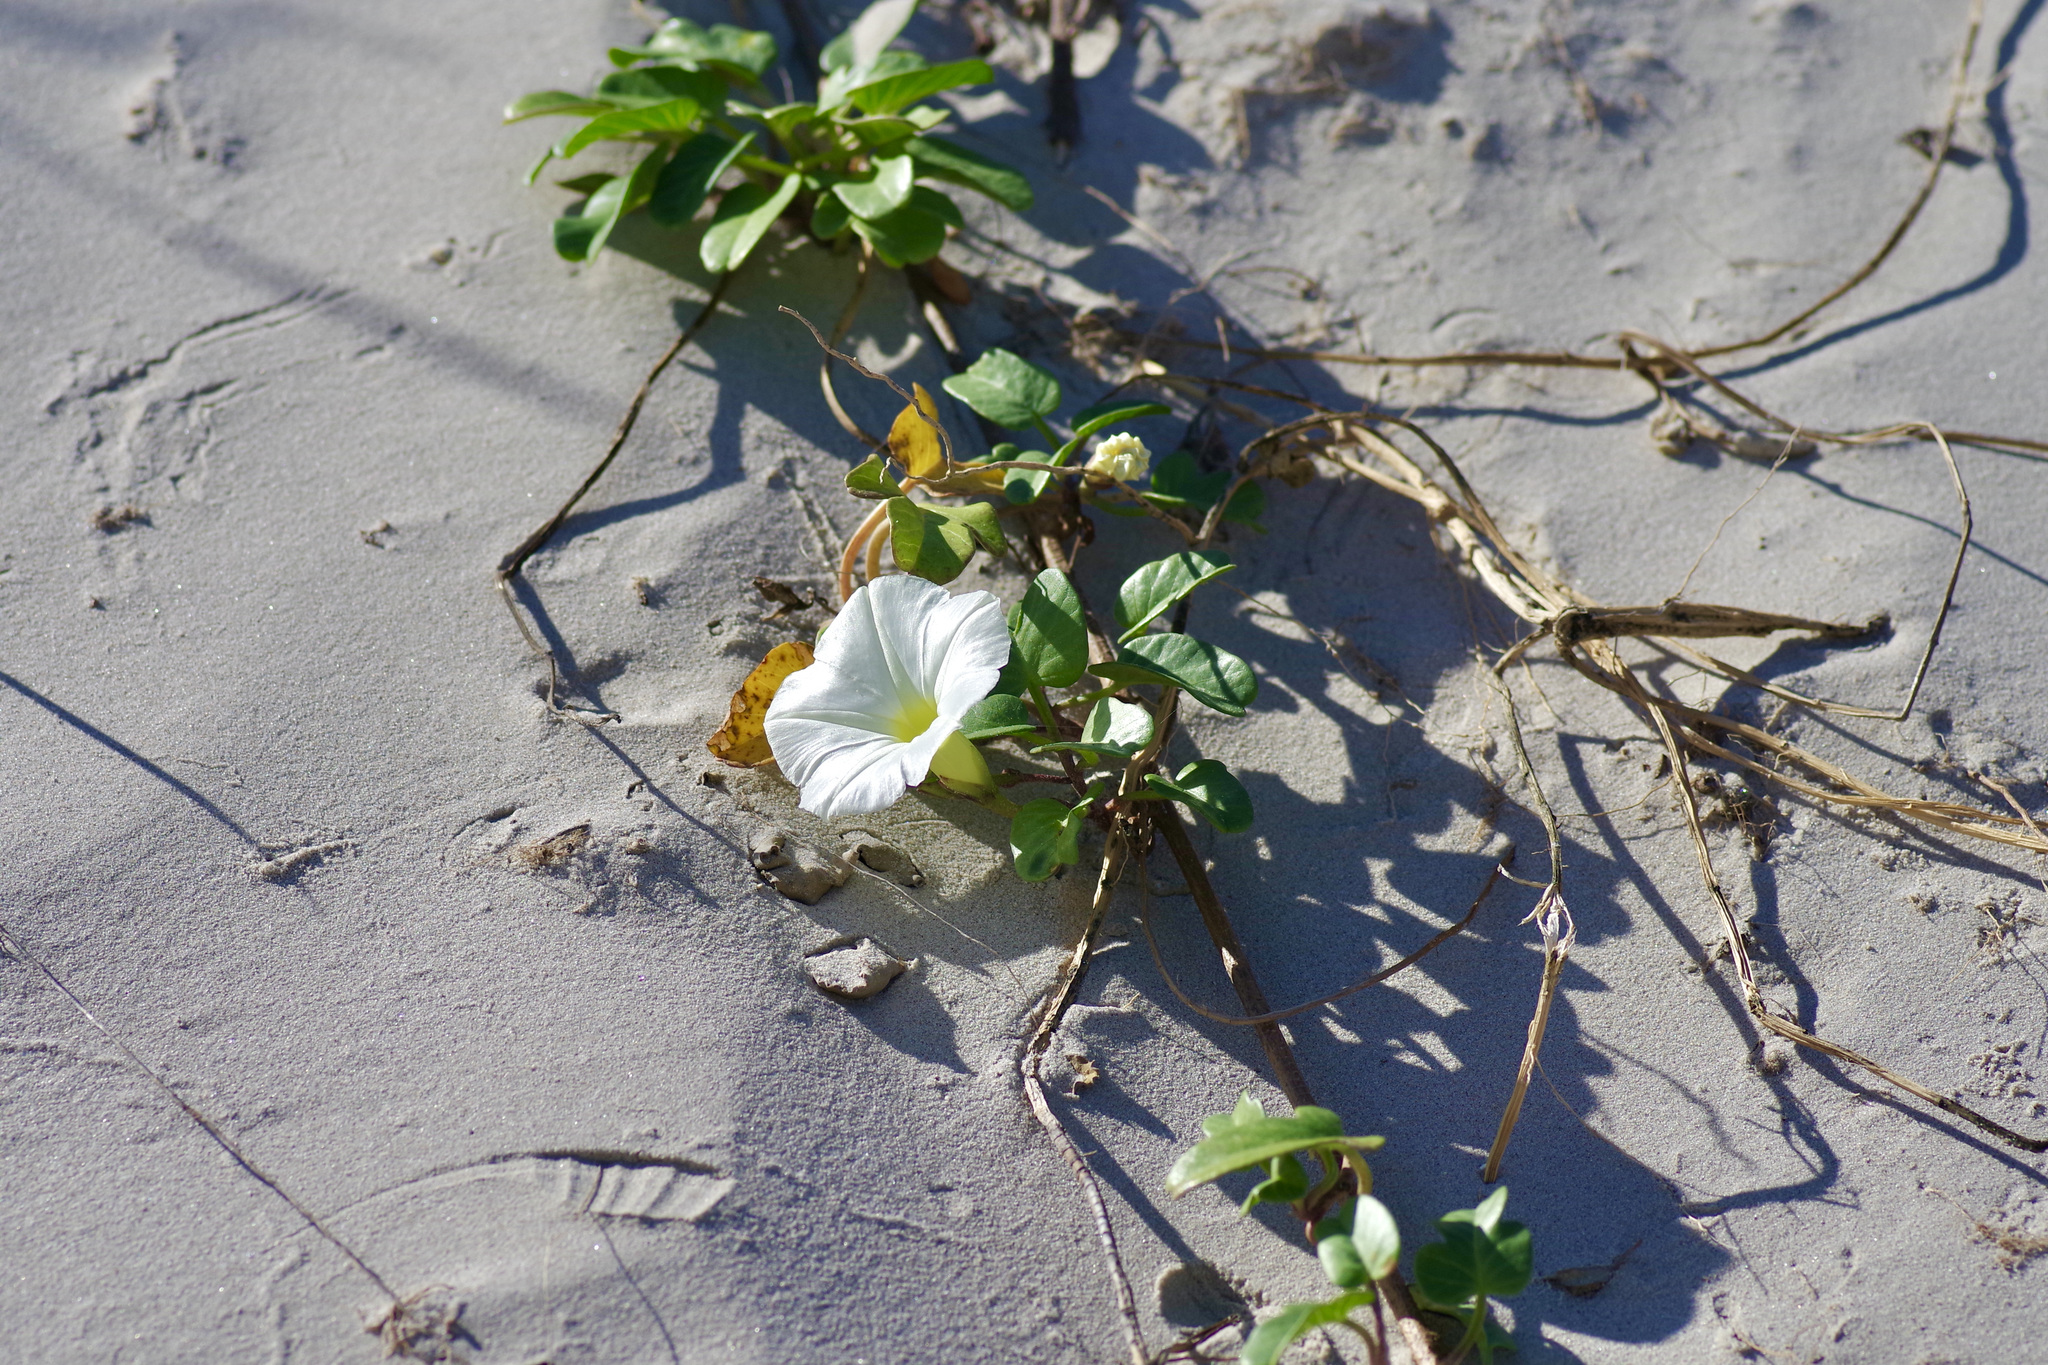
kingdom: Plantae
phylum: Tracheophyta
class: Magnoliopsida
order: Solanales
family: Convolvulaceae
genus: Ipomoea
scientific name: Ipomoea imperati
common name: Fiddle-leaf morning-glory
